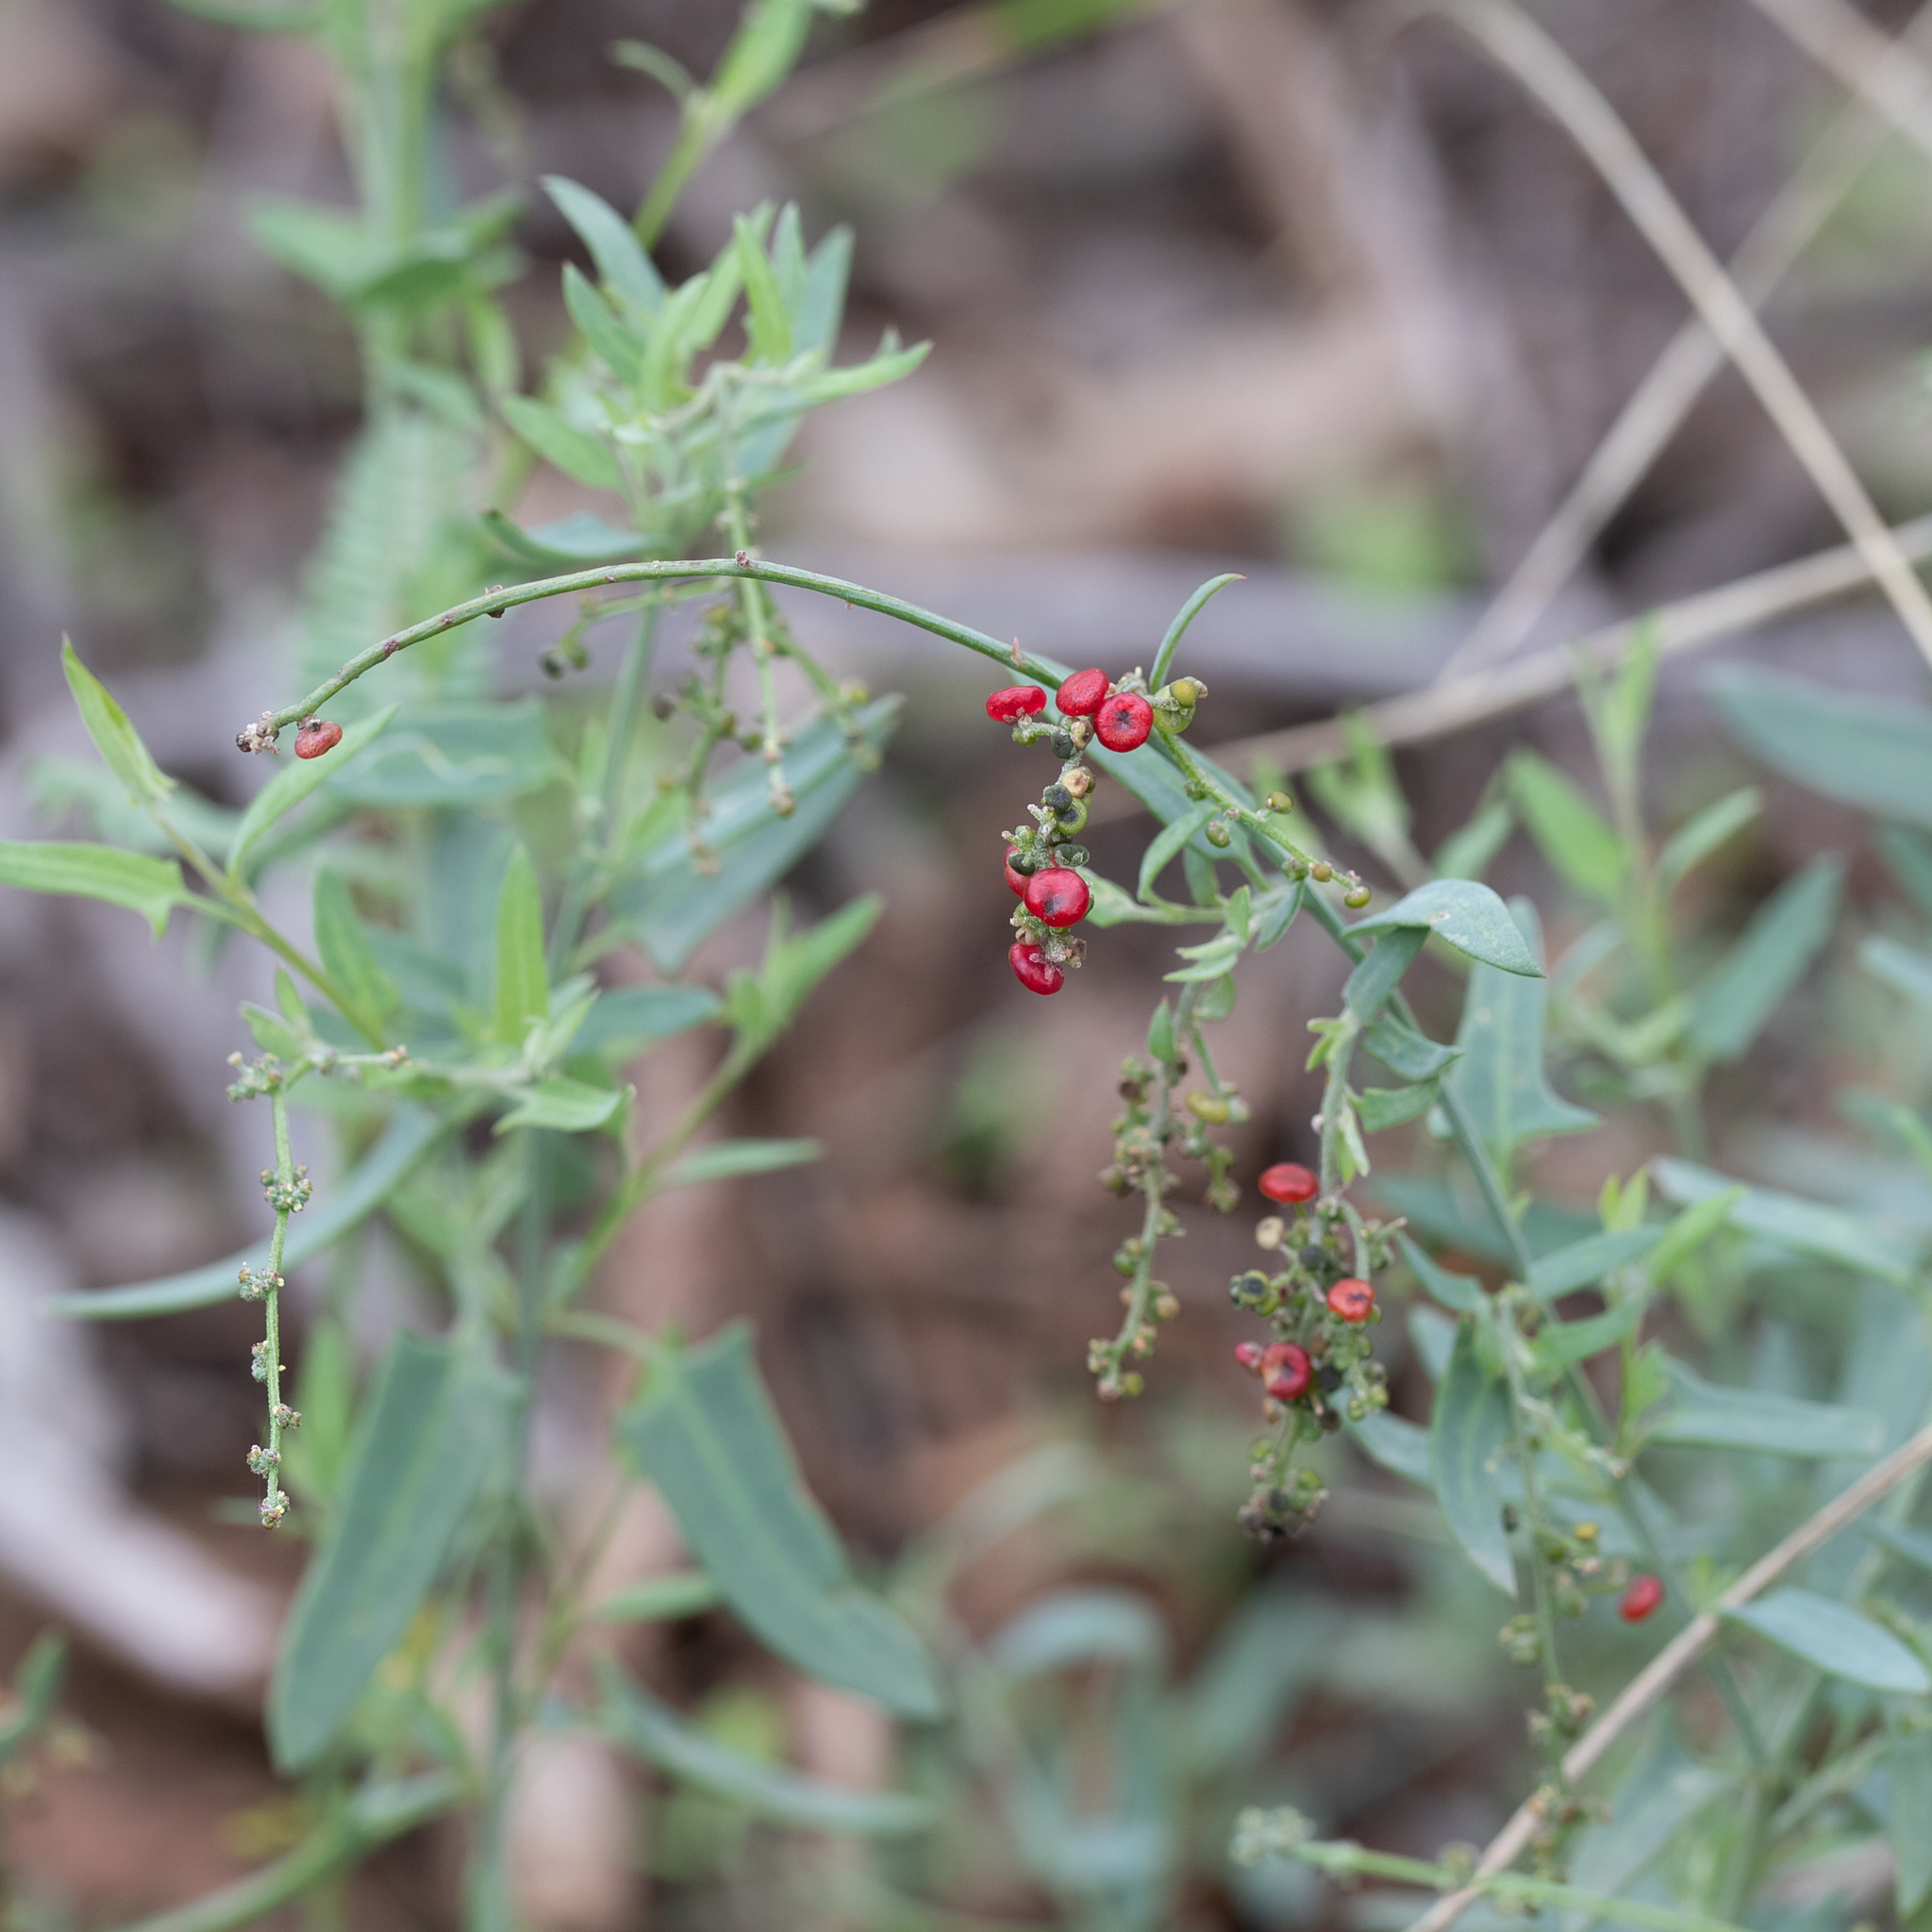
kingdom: Plantae
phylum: Tracheophyta
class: Magnoliopsida
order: Caryophyllales
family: Amaranthaceae
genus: Chenopodium
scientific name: Chenopodium nutans
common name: Climbing-saltbush
